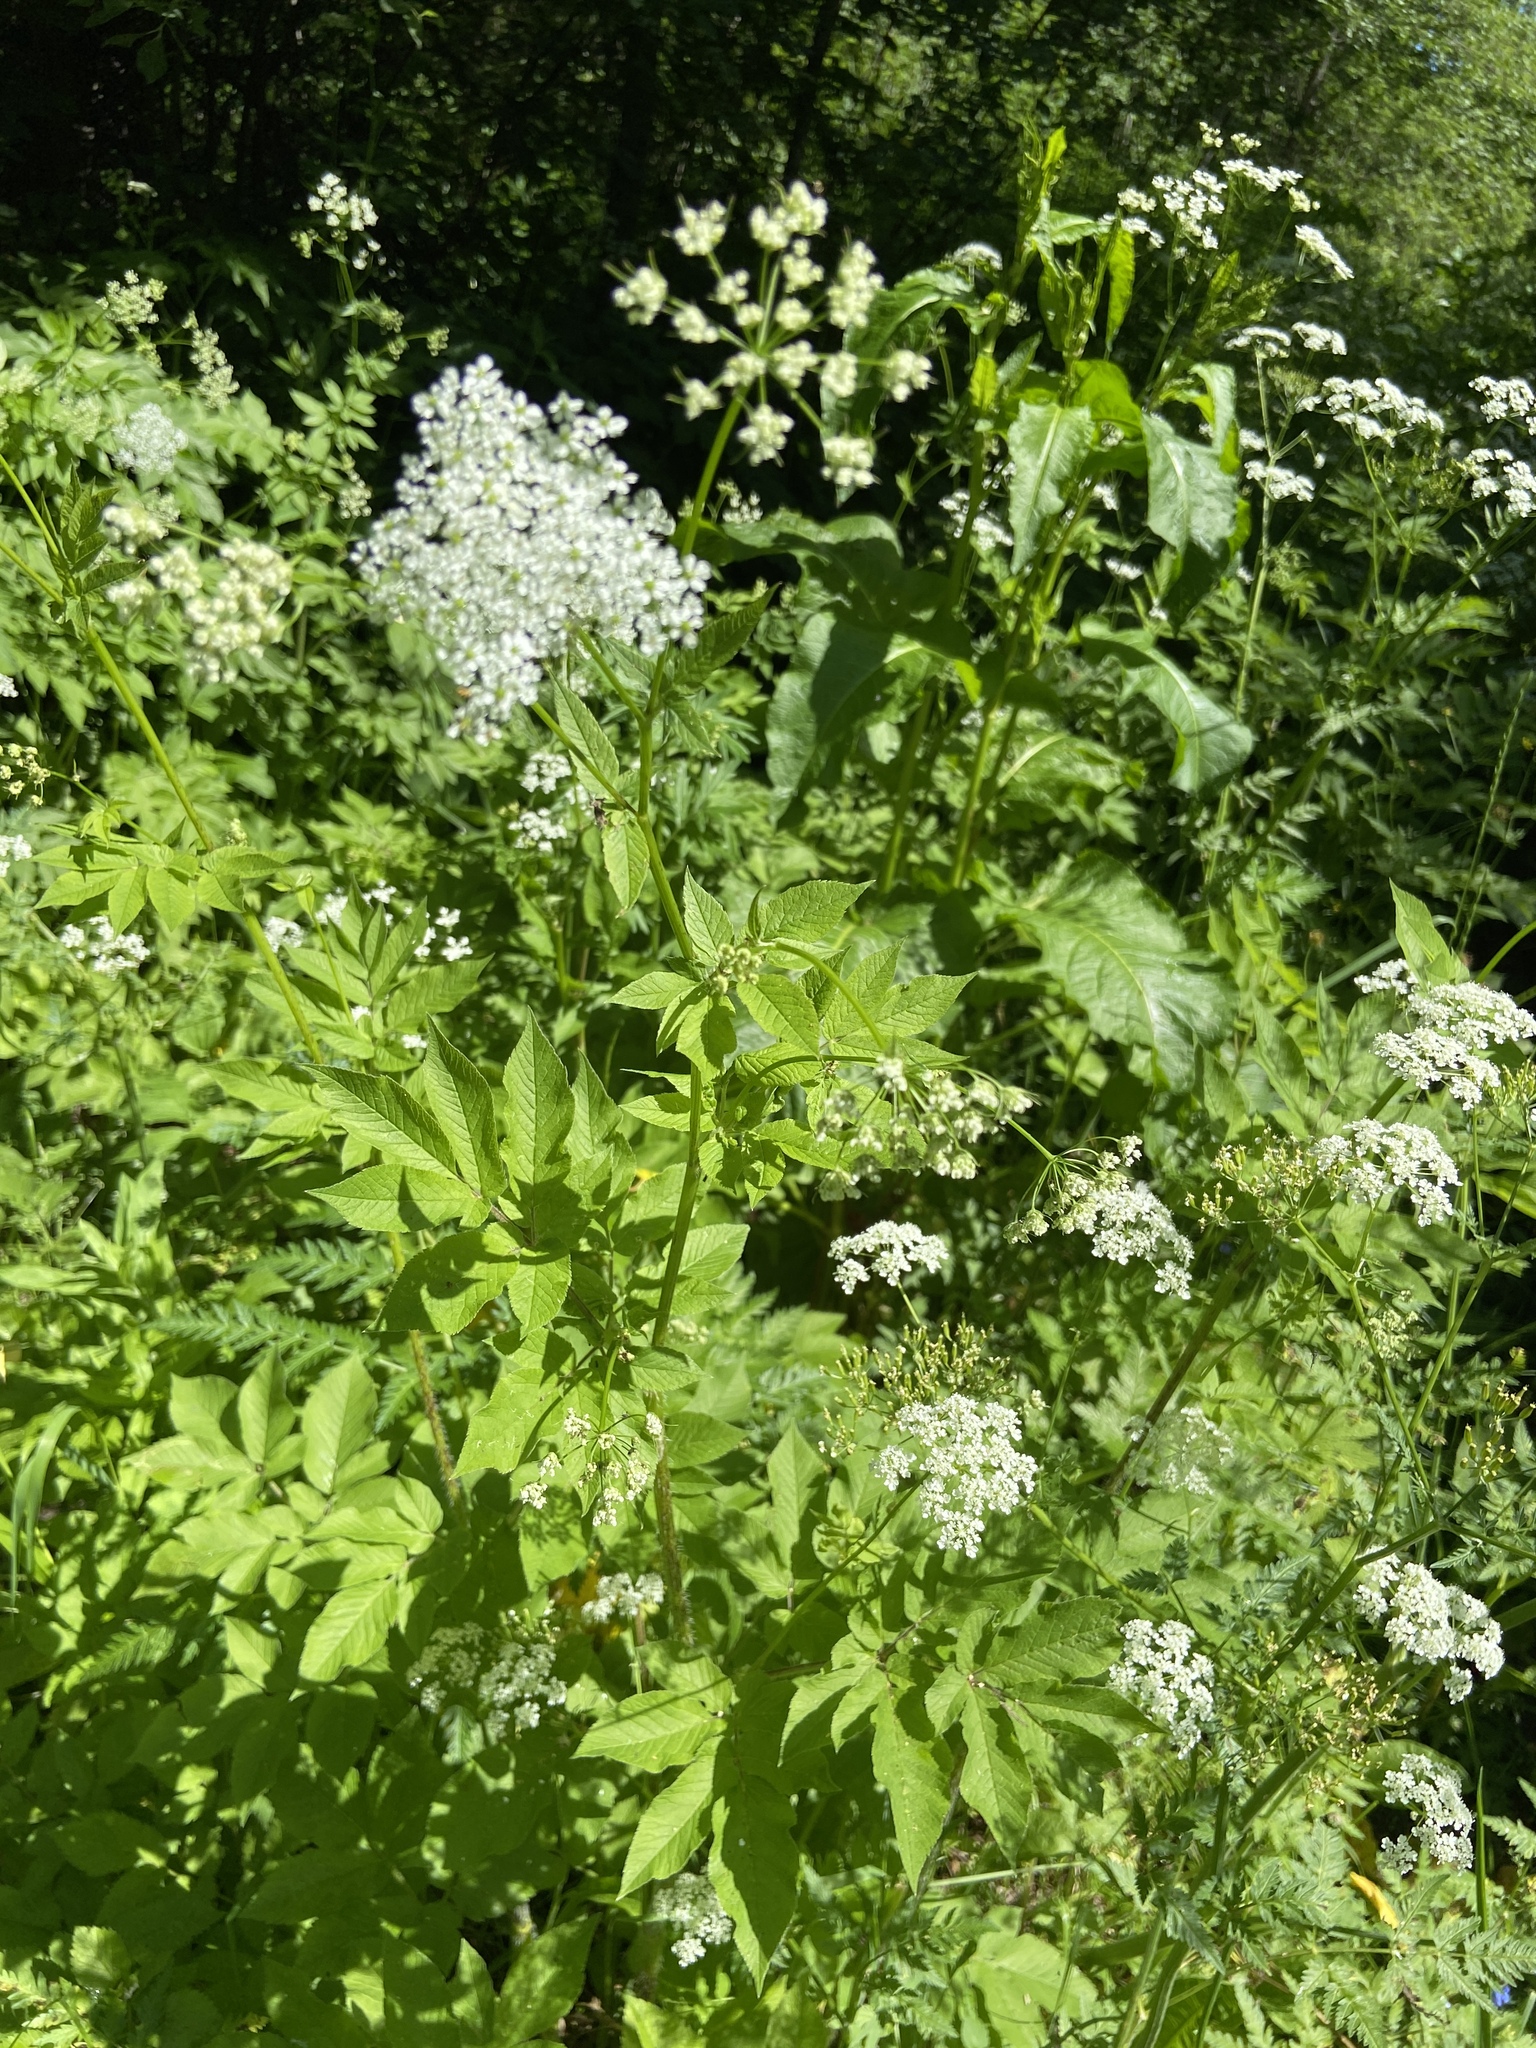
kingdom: Plantae
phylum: Tracheophyta
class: Magnoliopsida
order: Apiales
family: Apiaceae
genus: Chaerophyllum
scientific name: Chaerophyllum aromaticum
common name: Broadleaf chervil
